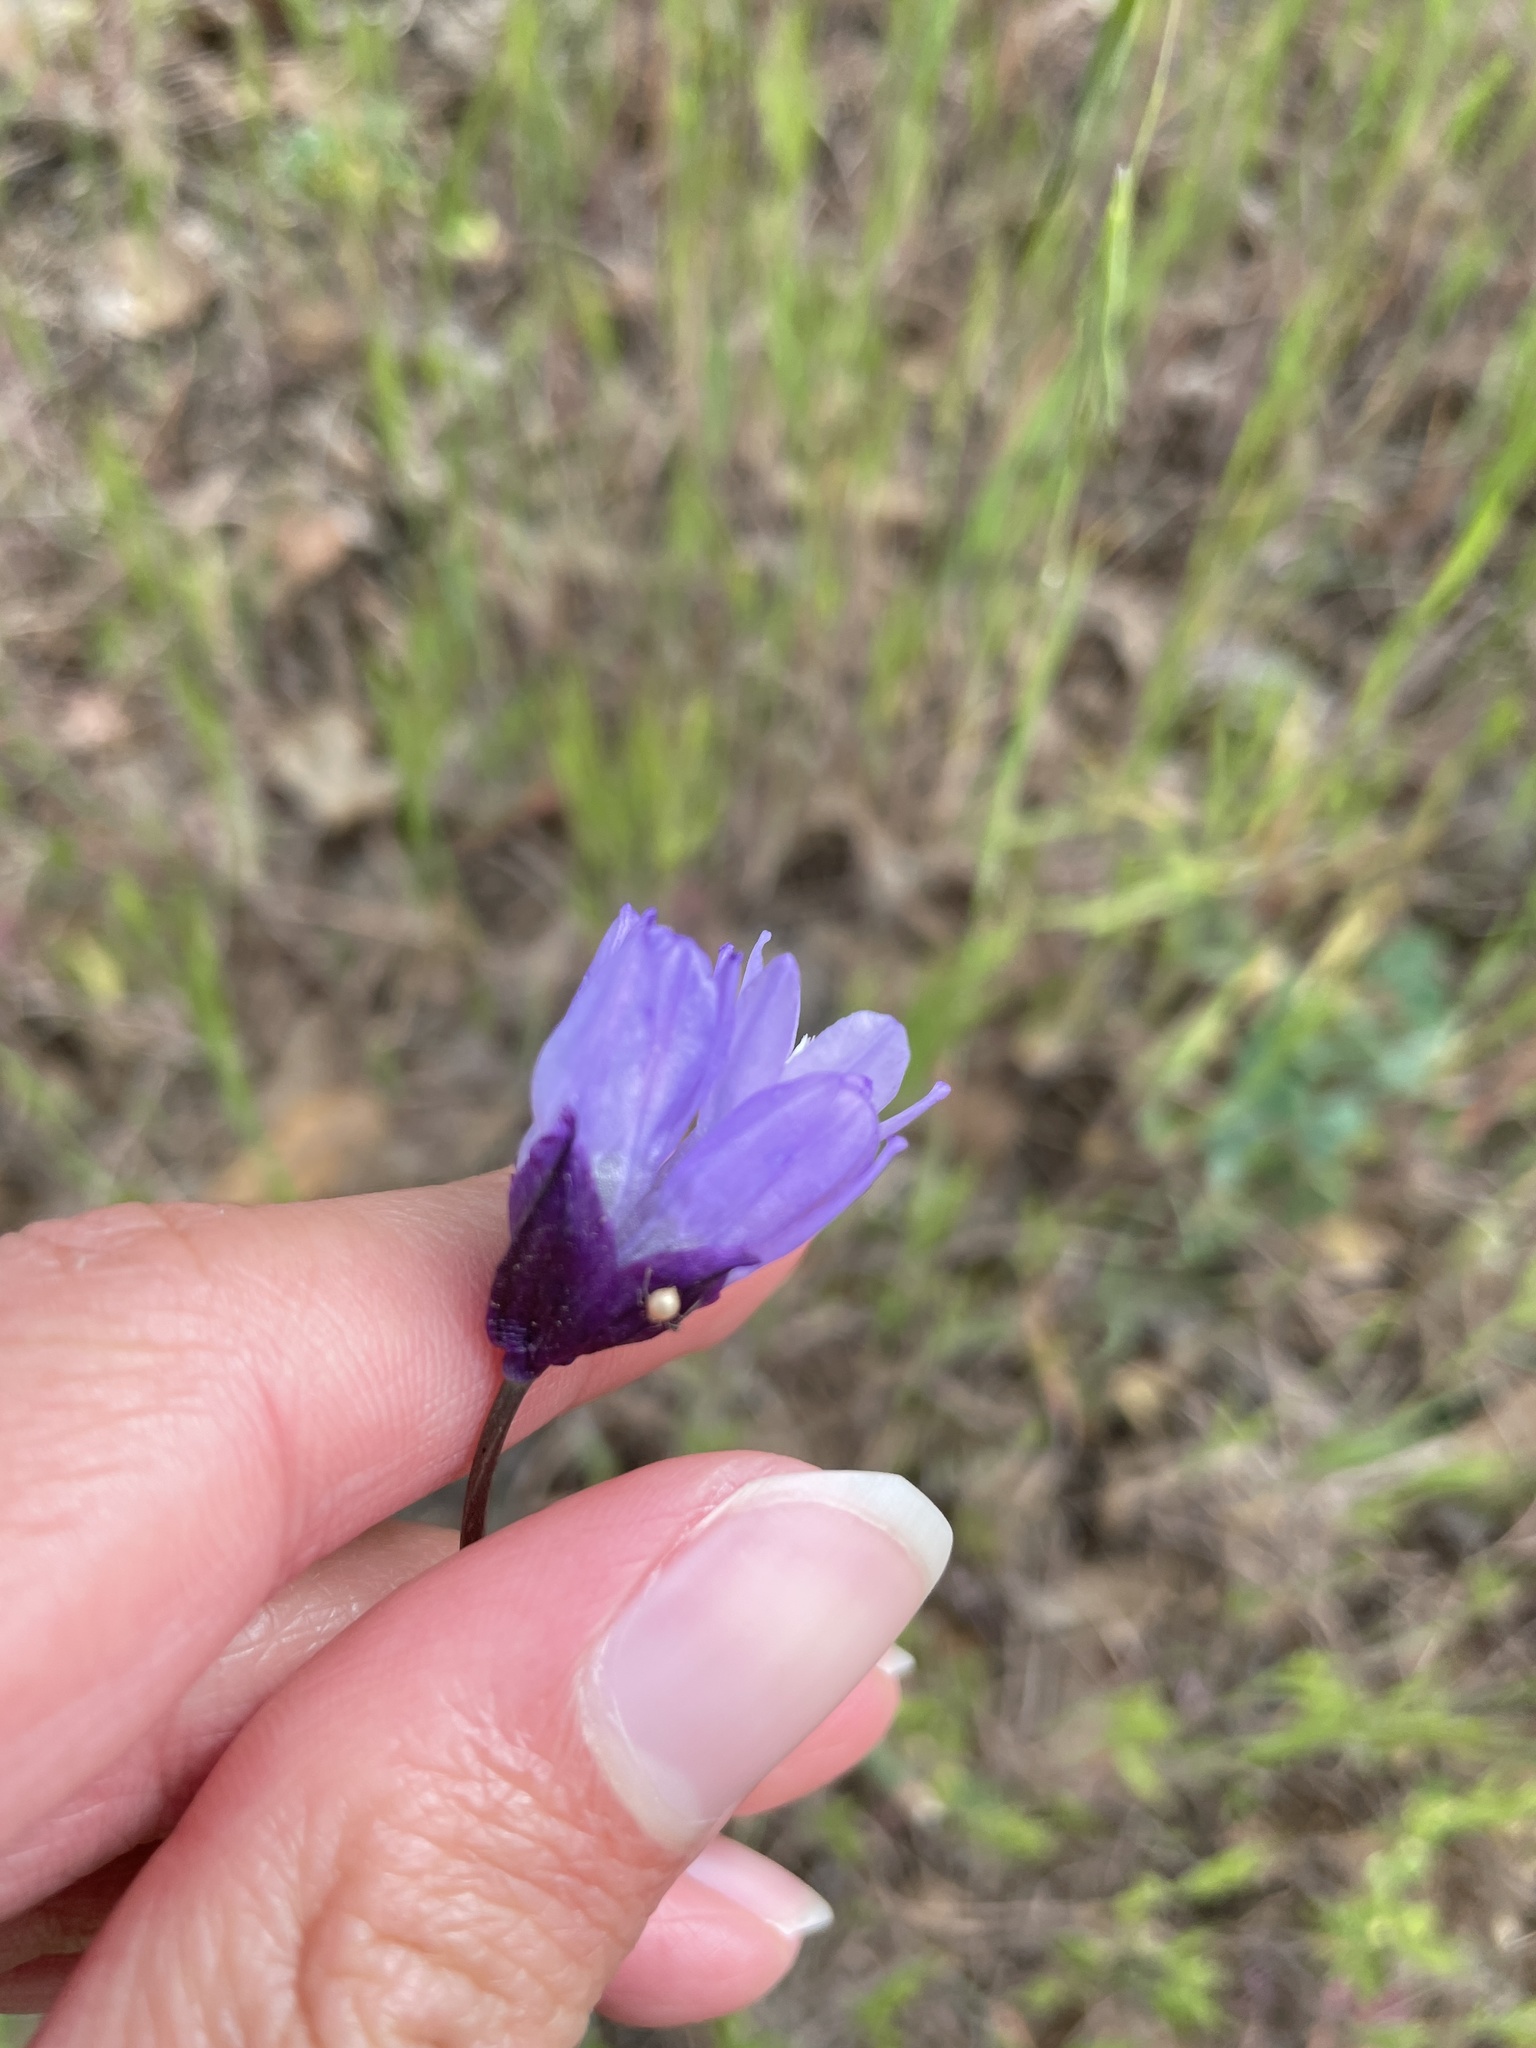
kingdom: Plantae
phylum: Tracheophyta
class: Liliopsida
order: Asparagales
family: Asparagaceae
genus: Dipterostemon
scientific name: Dipterostemon capitatus
